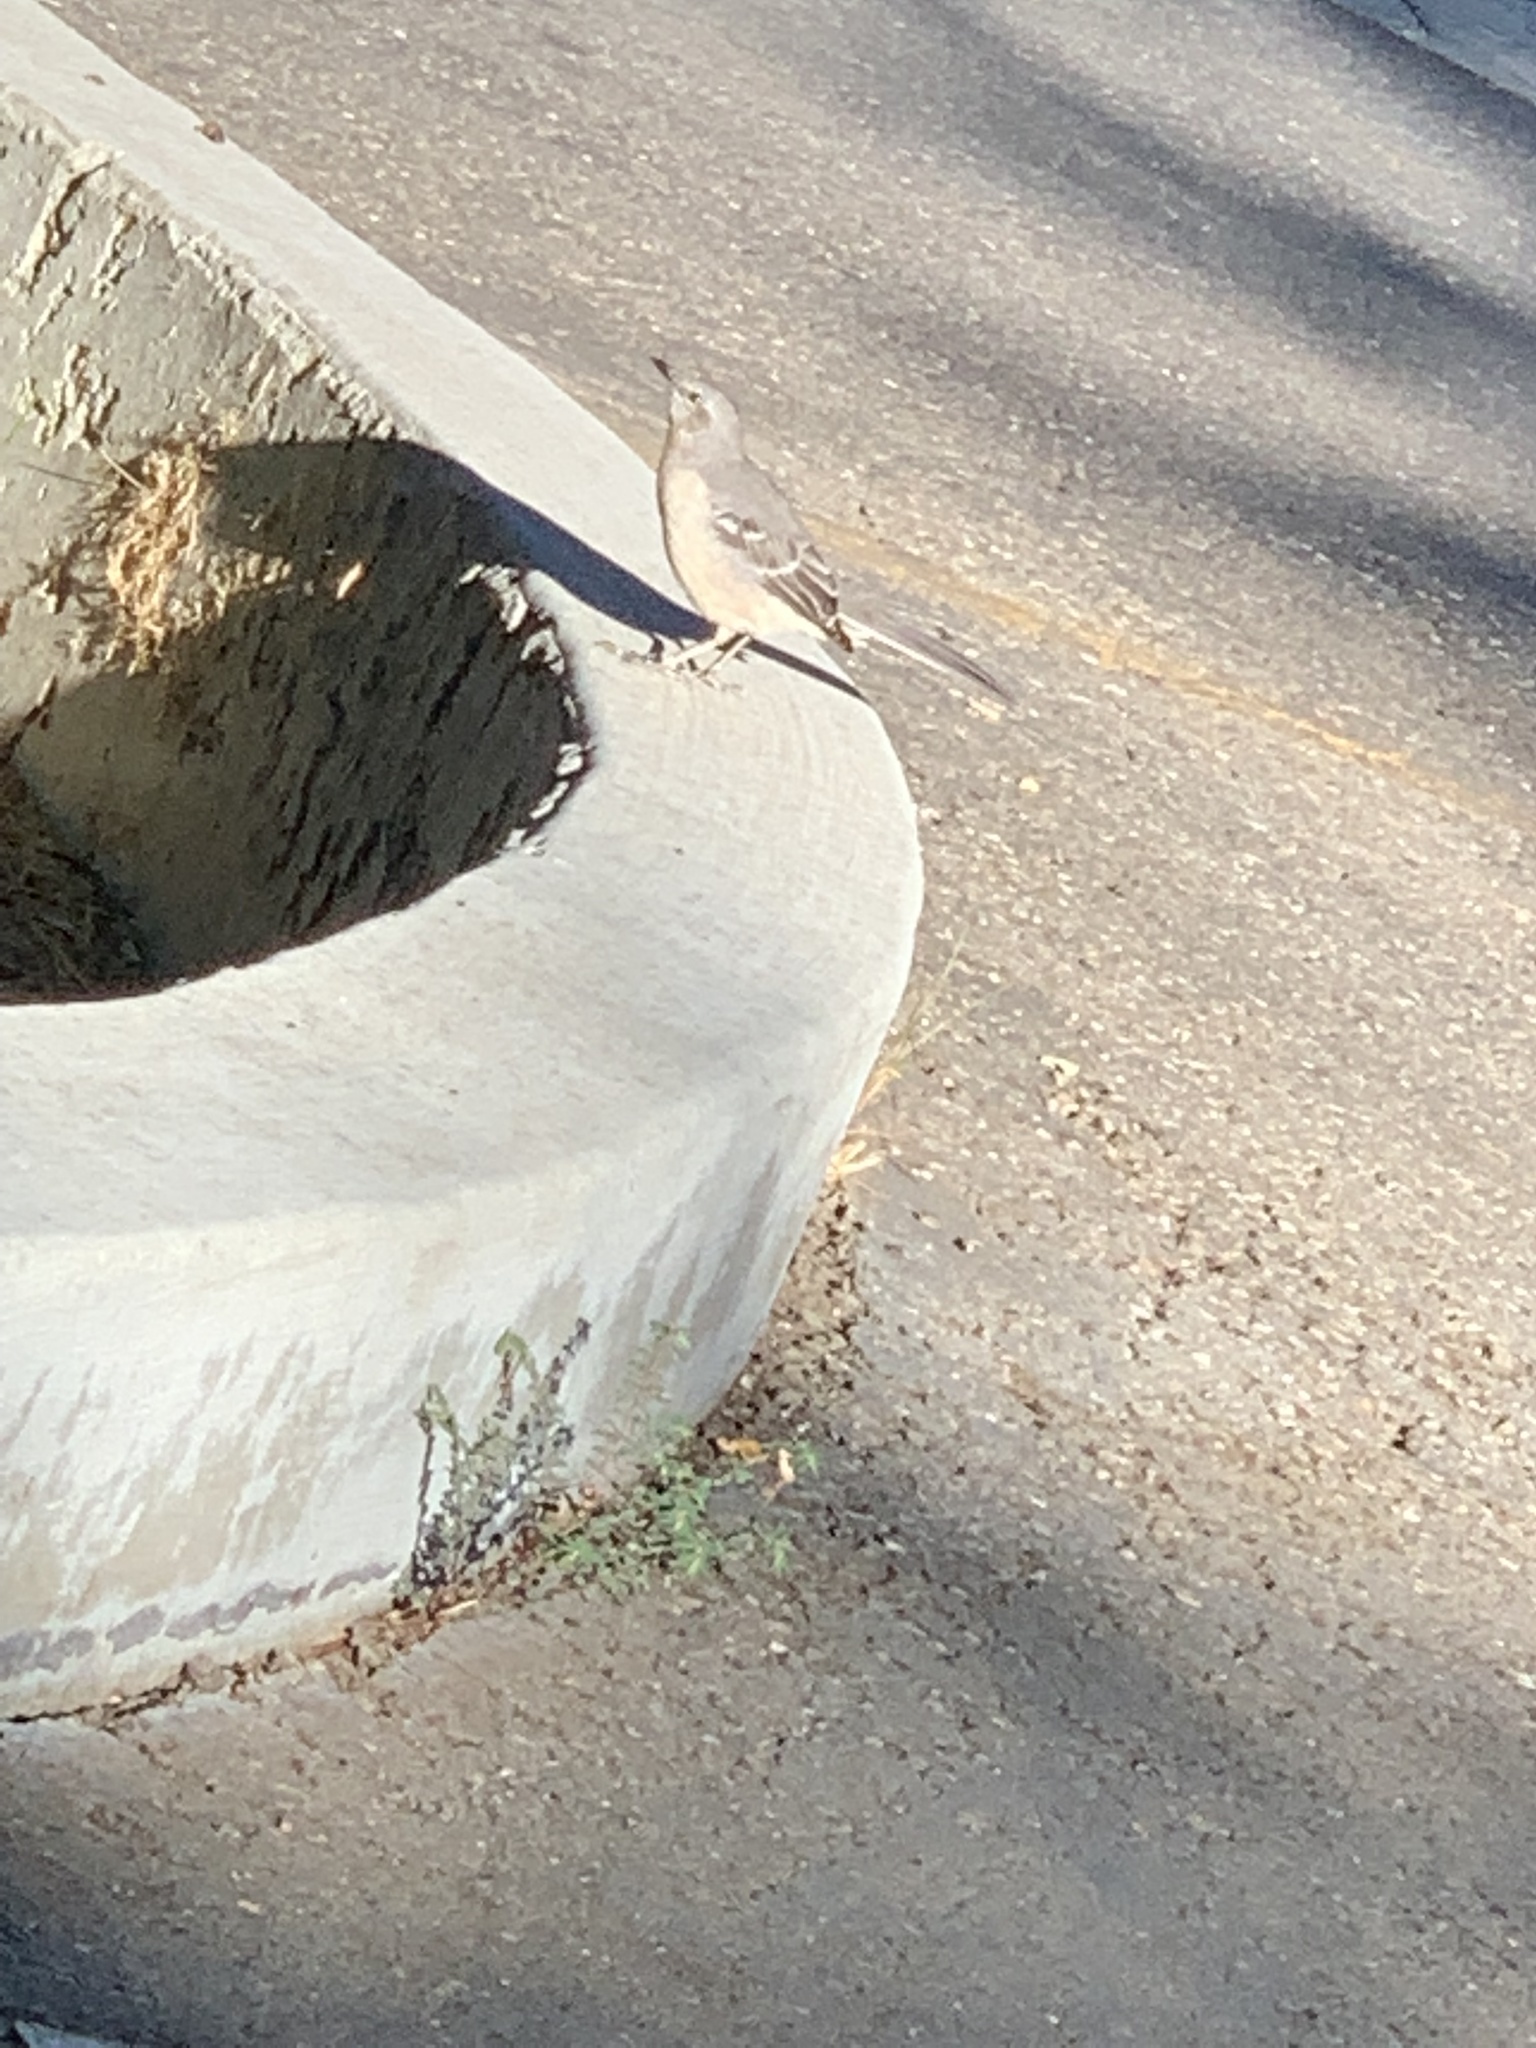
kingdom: Animalia
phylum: Chordata
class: Aves
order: Passeriformes
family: Mimidae
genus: Mimus
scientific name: Mimus polyglottos
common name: Northern mockingbird
